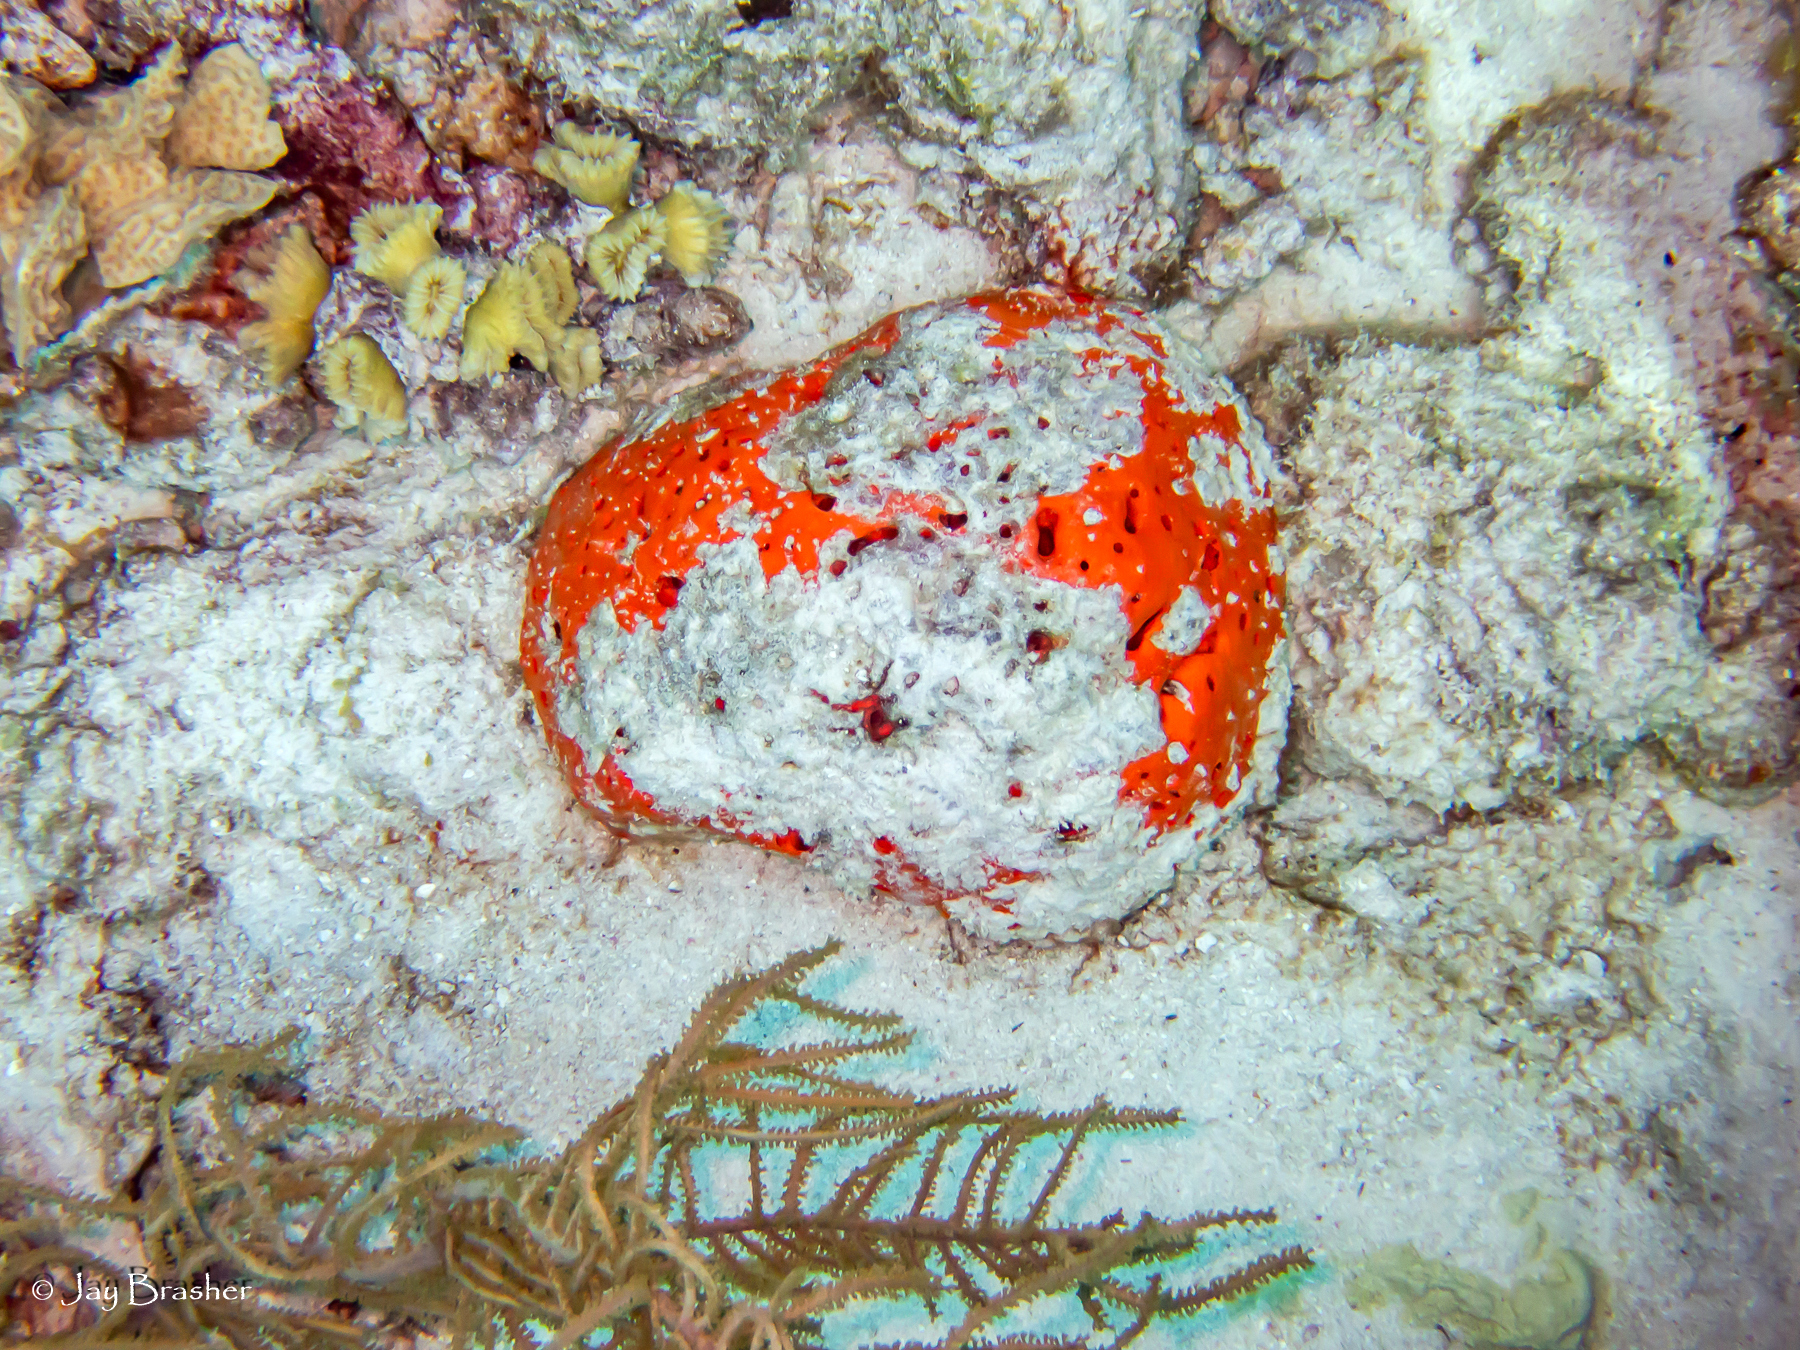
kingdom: Animalia
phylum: Porifera
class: Demospongiae
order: Agelasida
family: Agelasidae
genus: Agelas
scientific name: Agelas sventres
